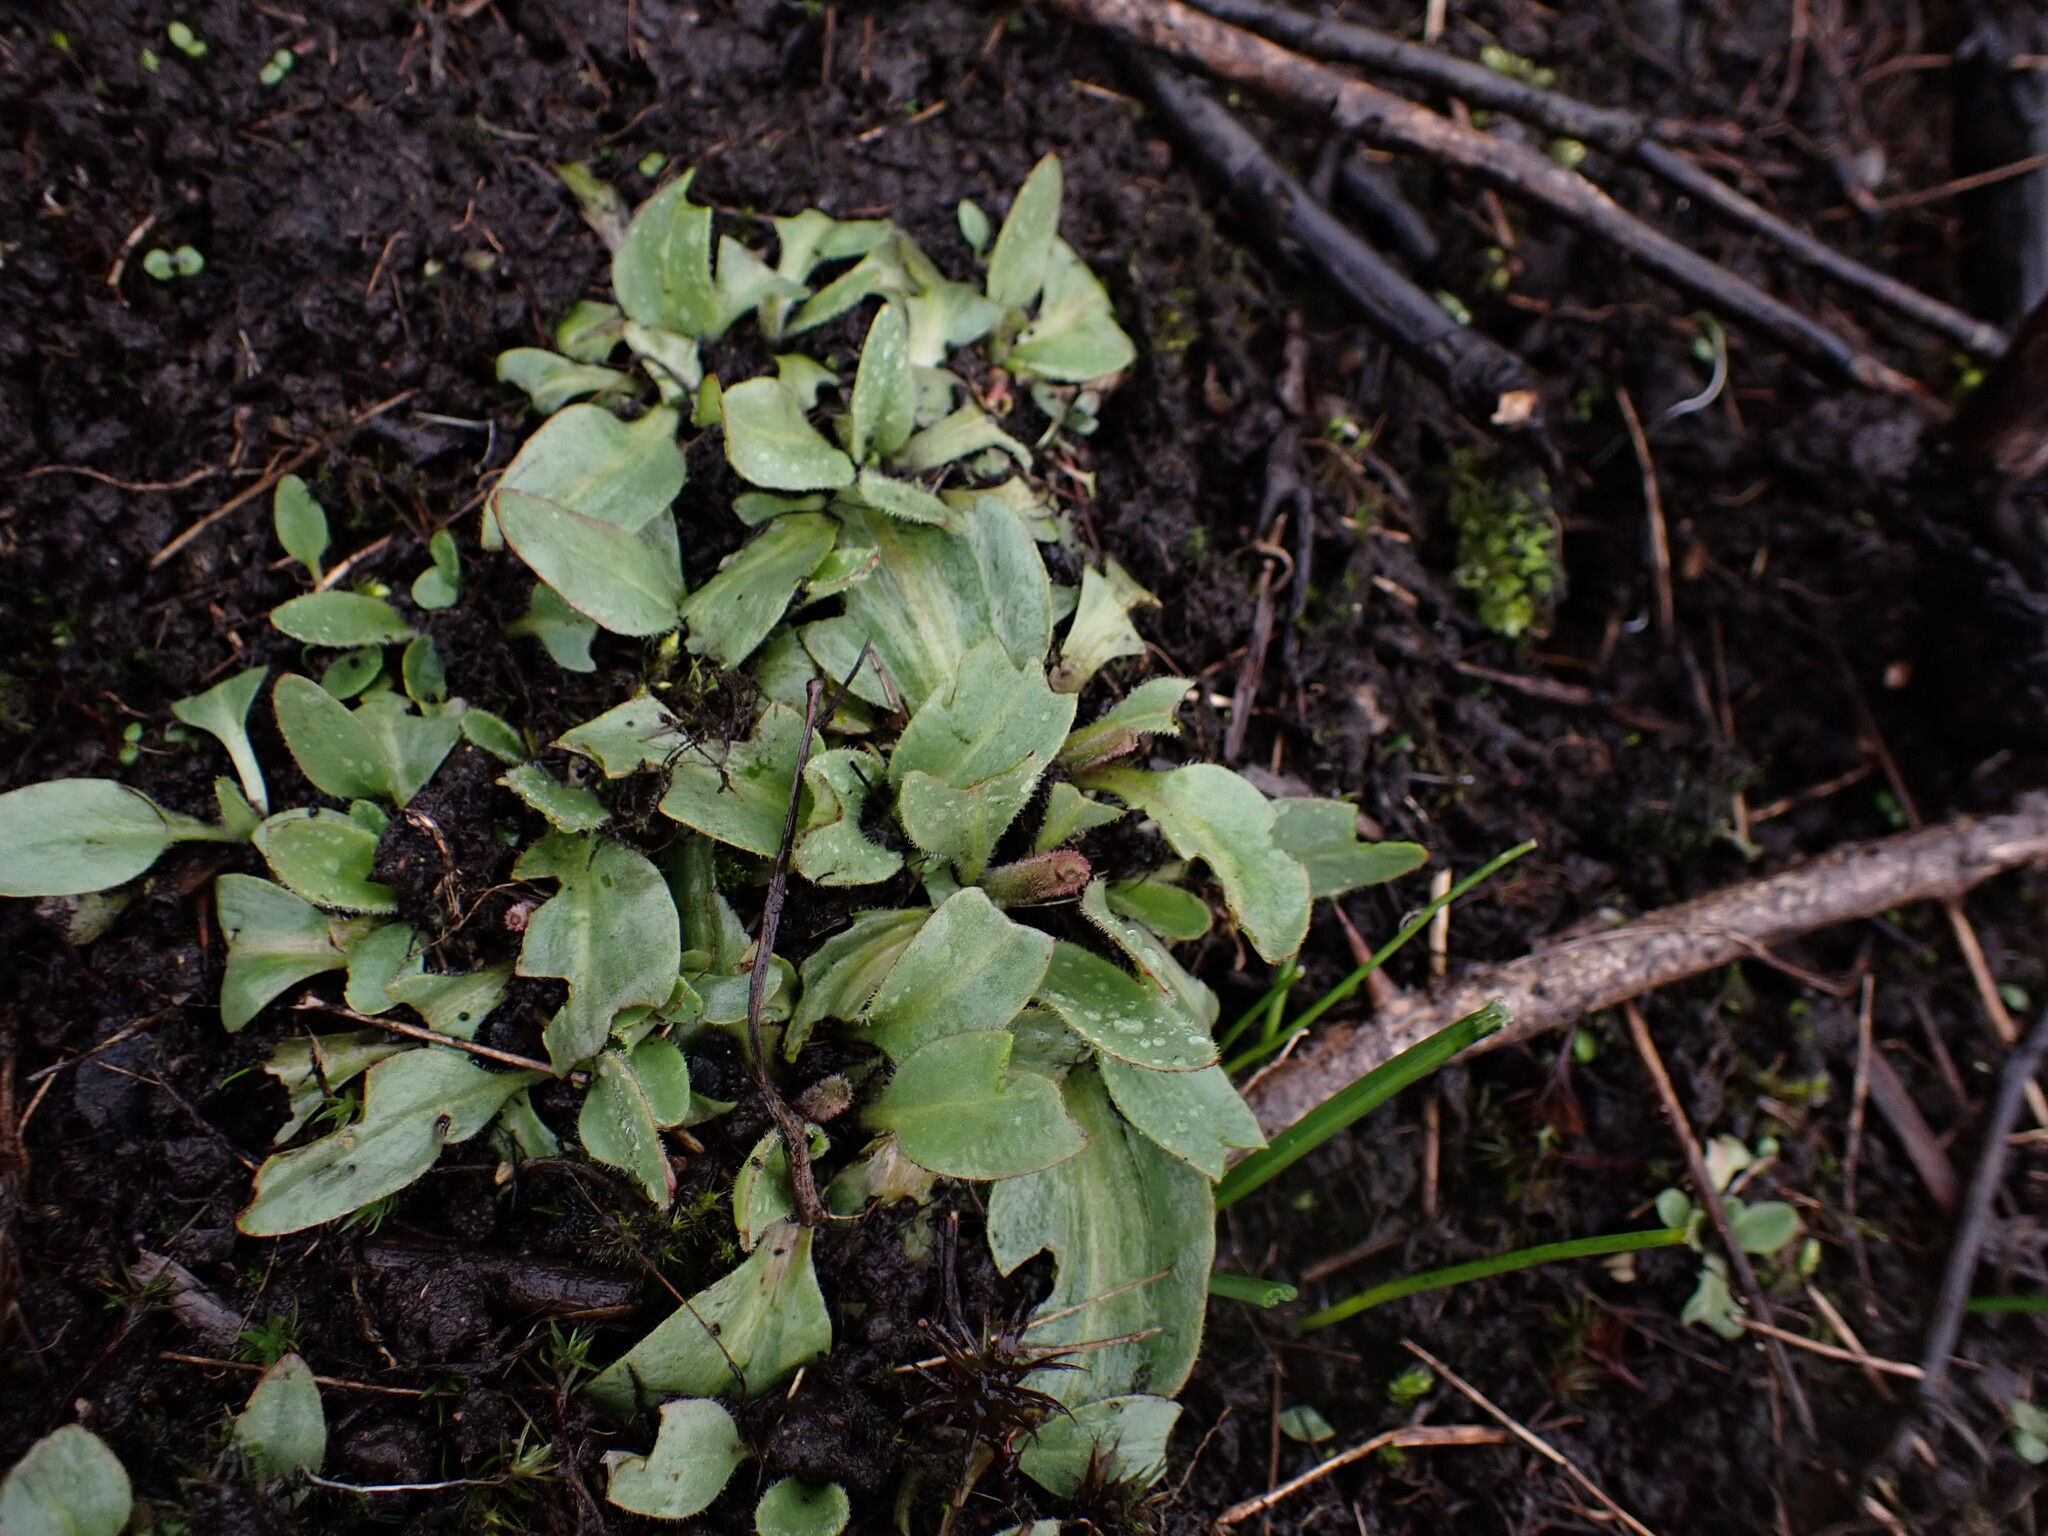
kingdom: Plantae
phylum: Tracheophyta
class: Magnoliopsida
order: Saxifragales
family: Saxifragaceae
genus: Micranthes
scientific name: Micranthes integrifolia
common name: Wholeleaf saxifrage
